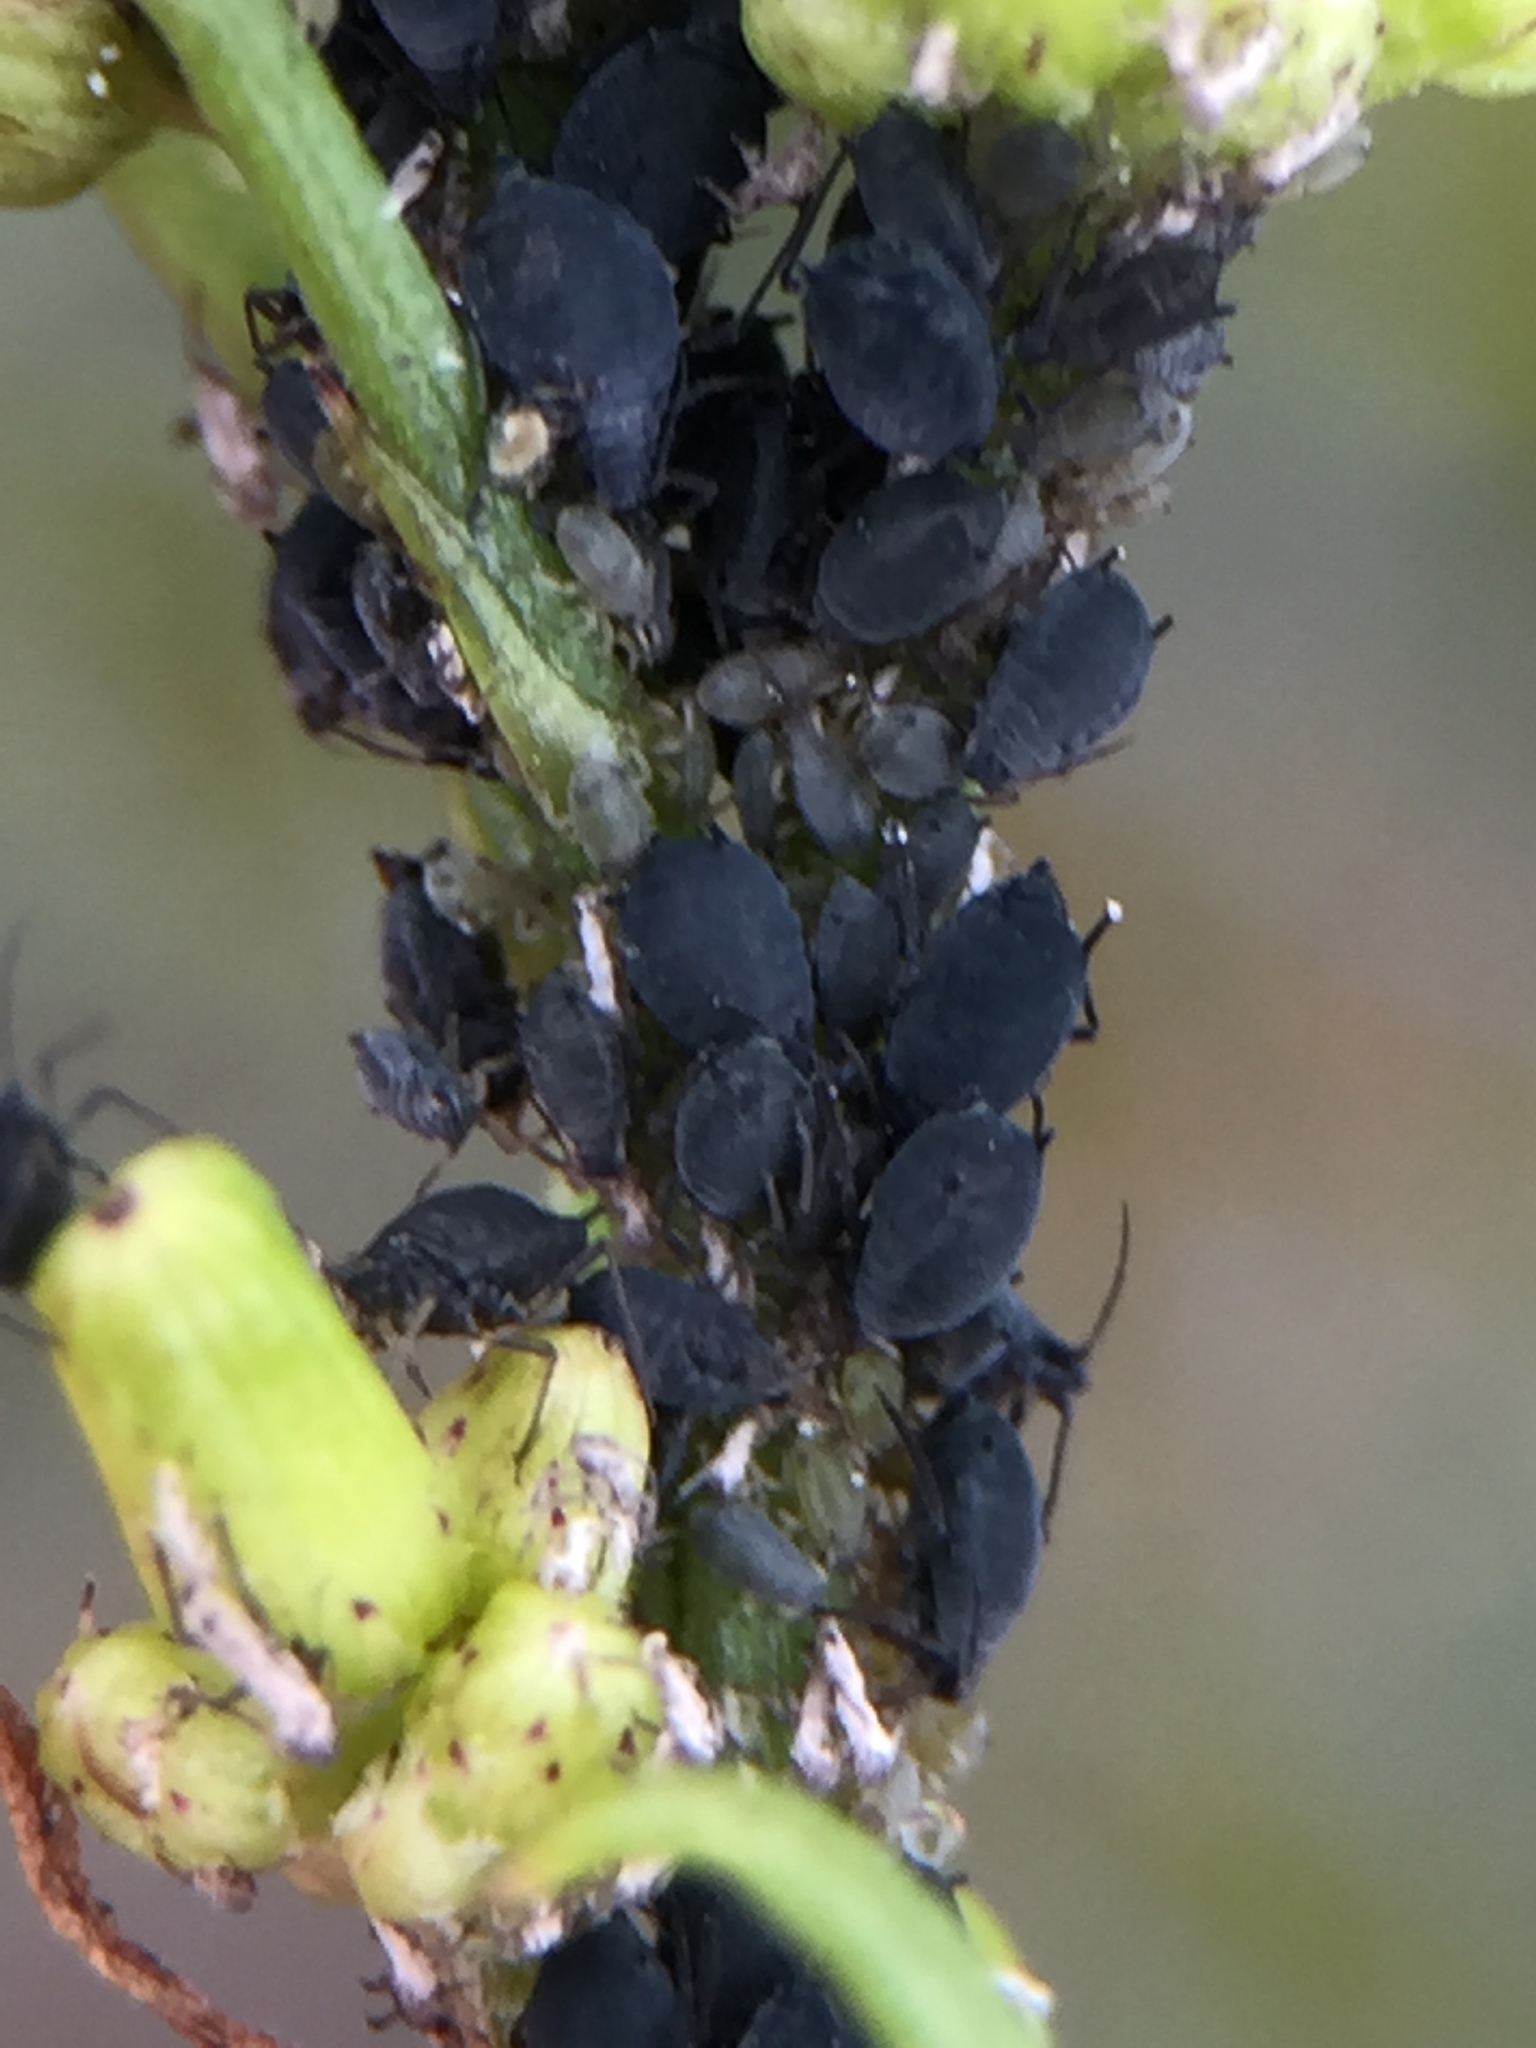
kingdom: Animalia
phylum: Arthropoda
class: Insecta
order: Hemiptera
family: Aphididae
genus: Aphis
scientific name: Aphis lugentis
